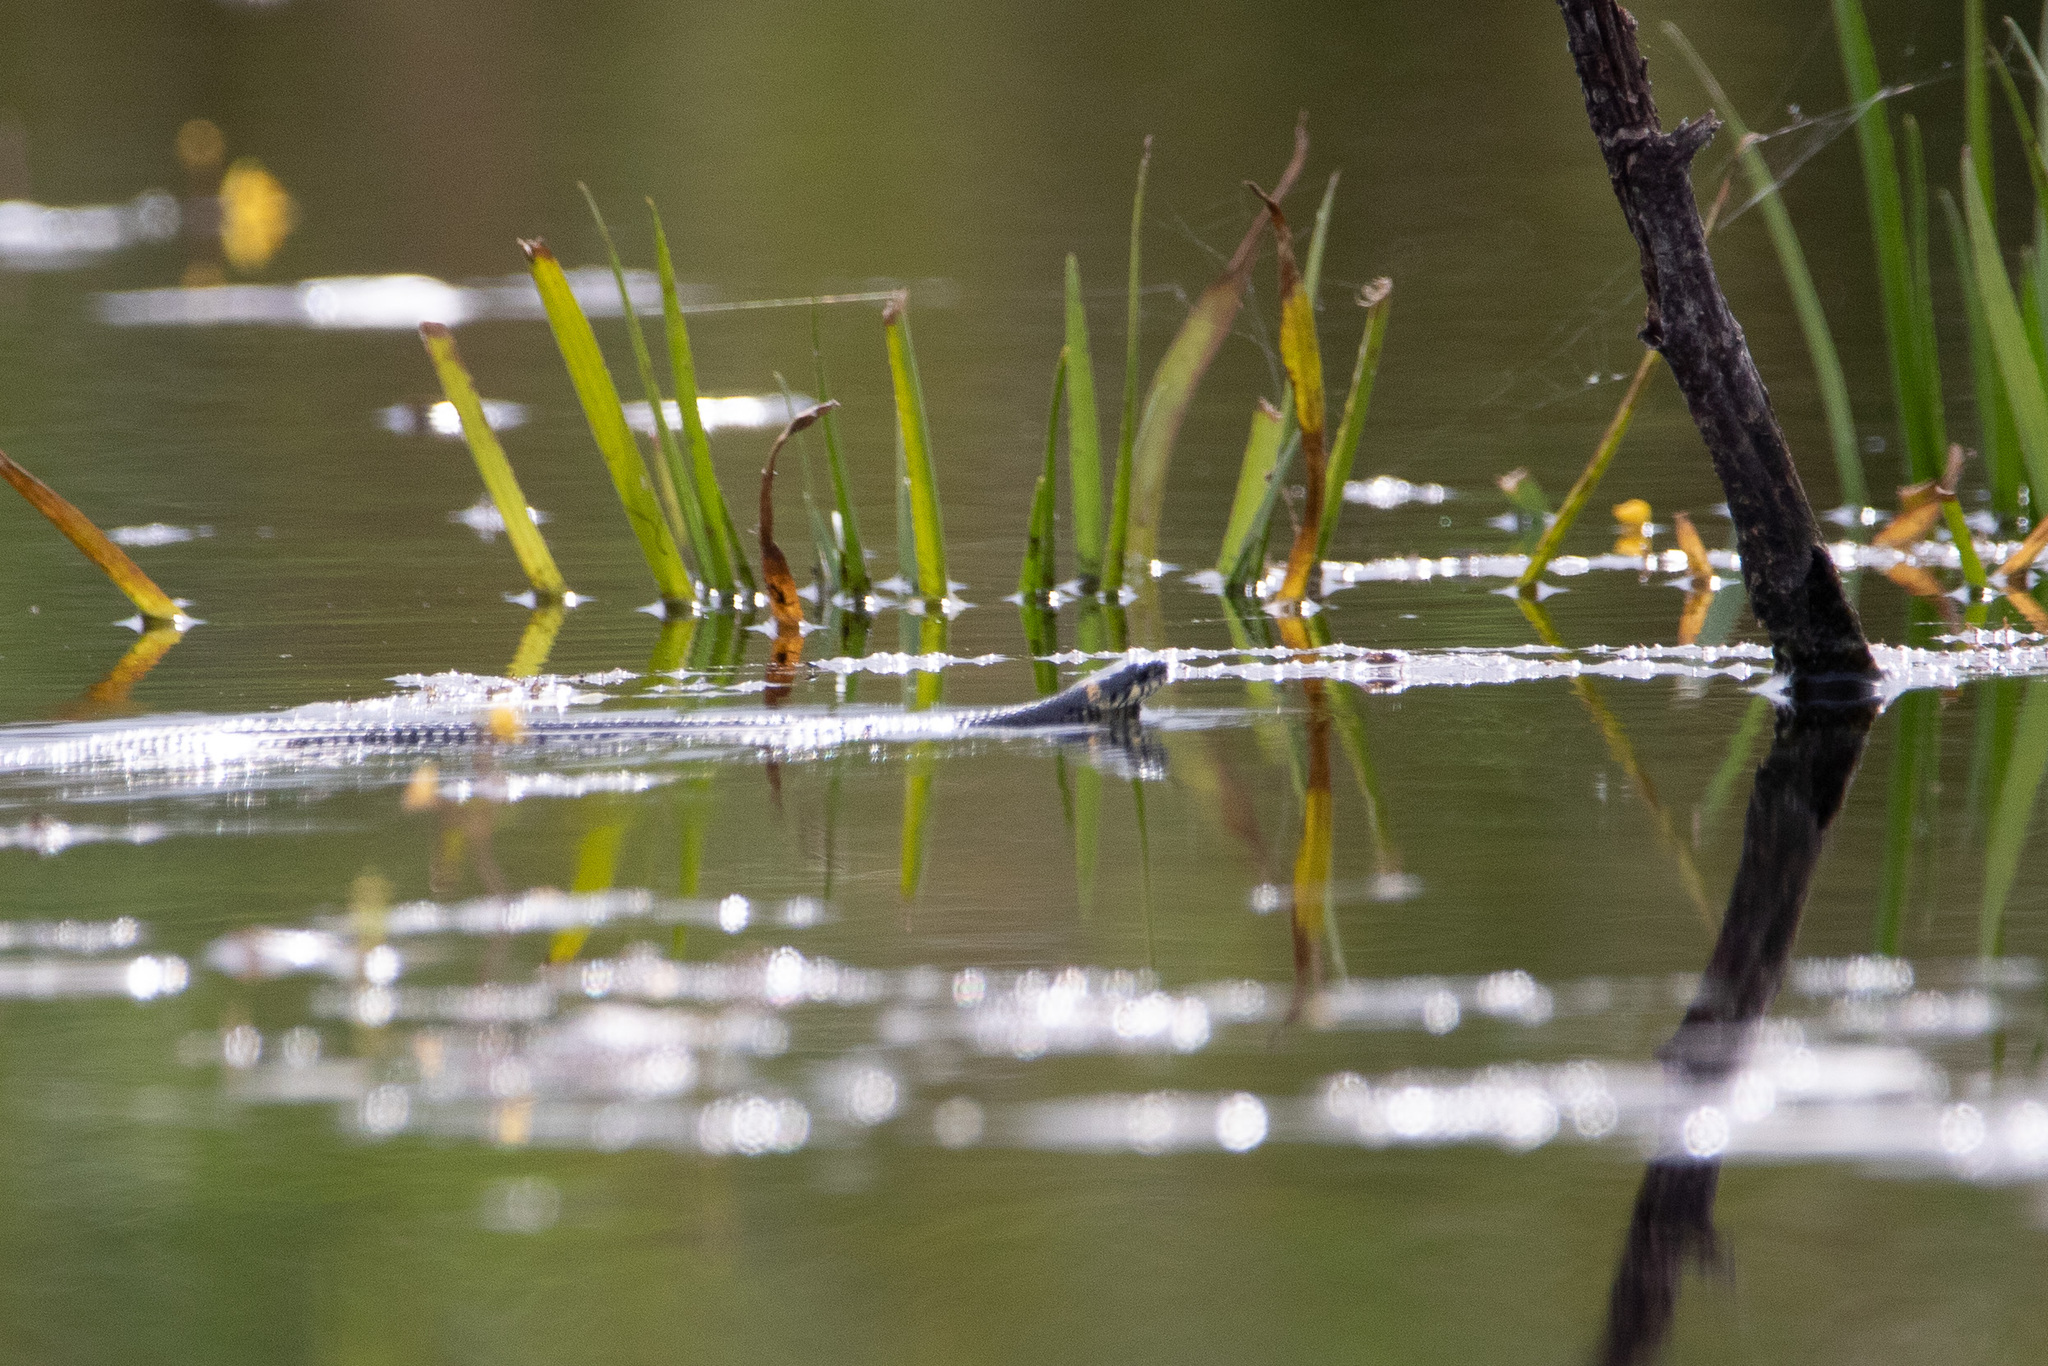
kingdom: Animalia
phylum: Chordata
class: Squamata
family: Colubridae
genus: Natrix
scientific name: Natrix natrix
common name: Grass snake
